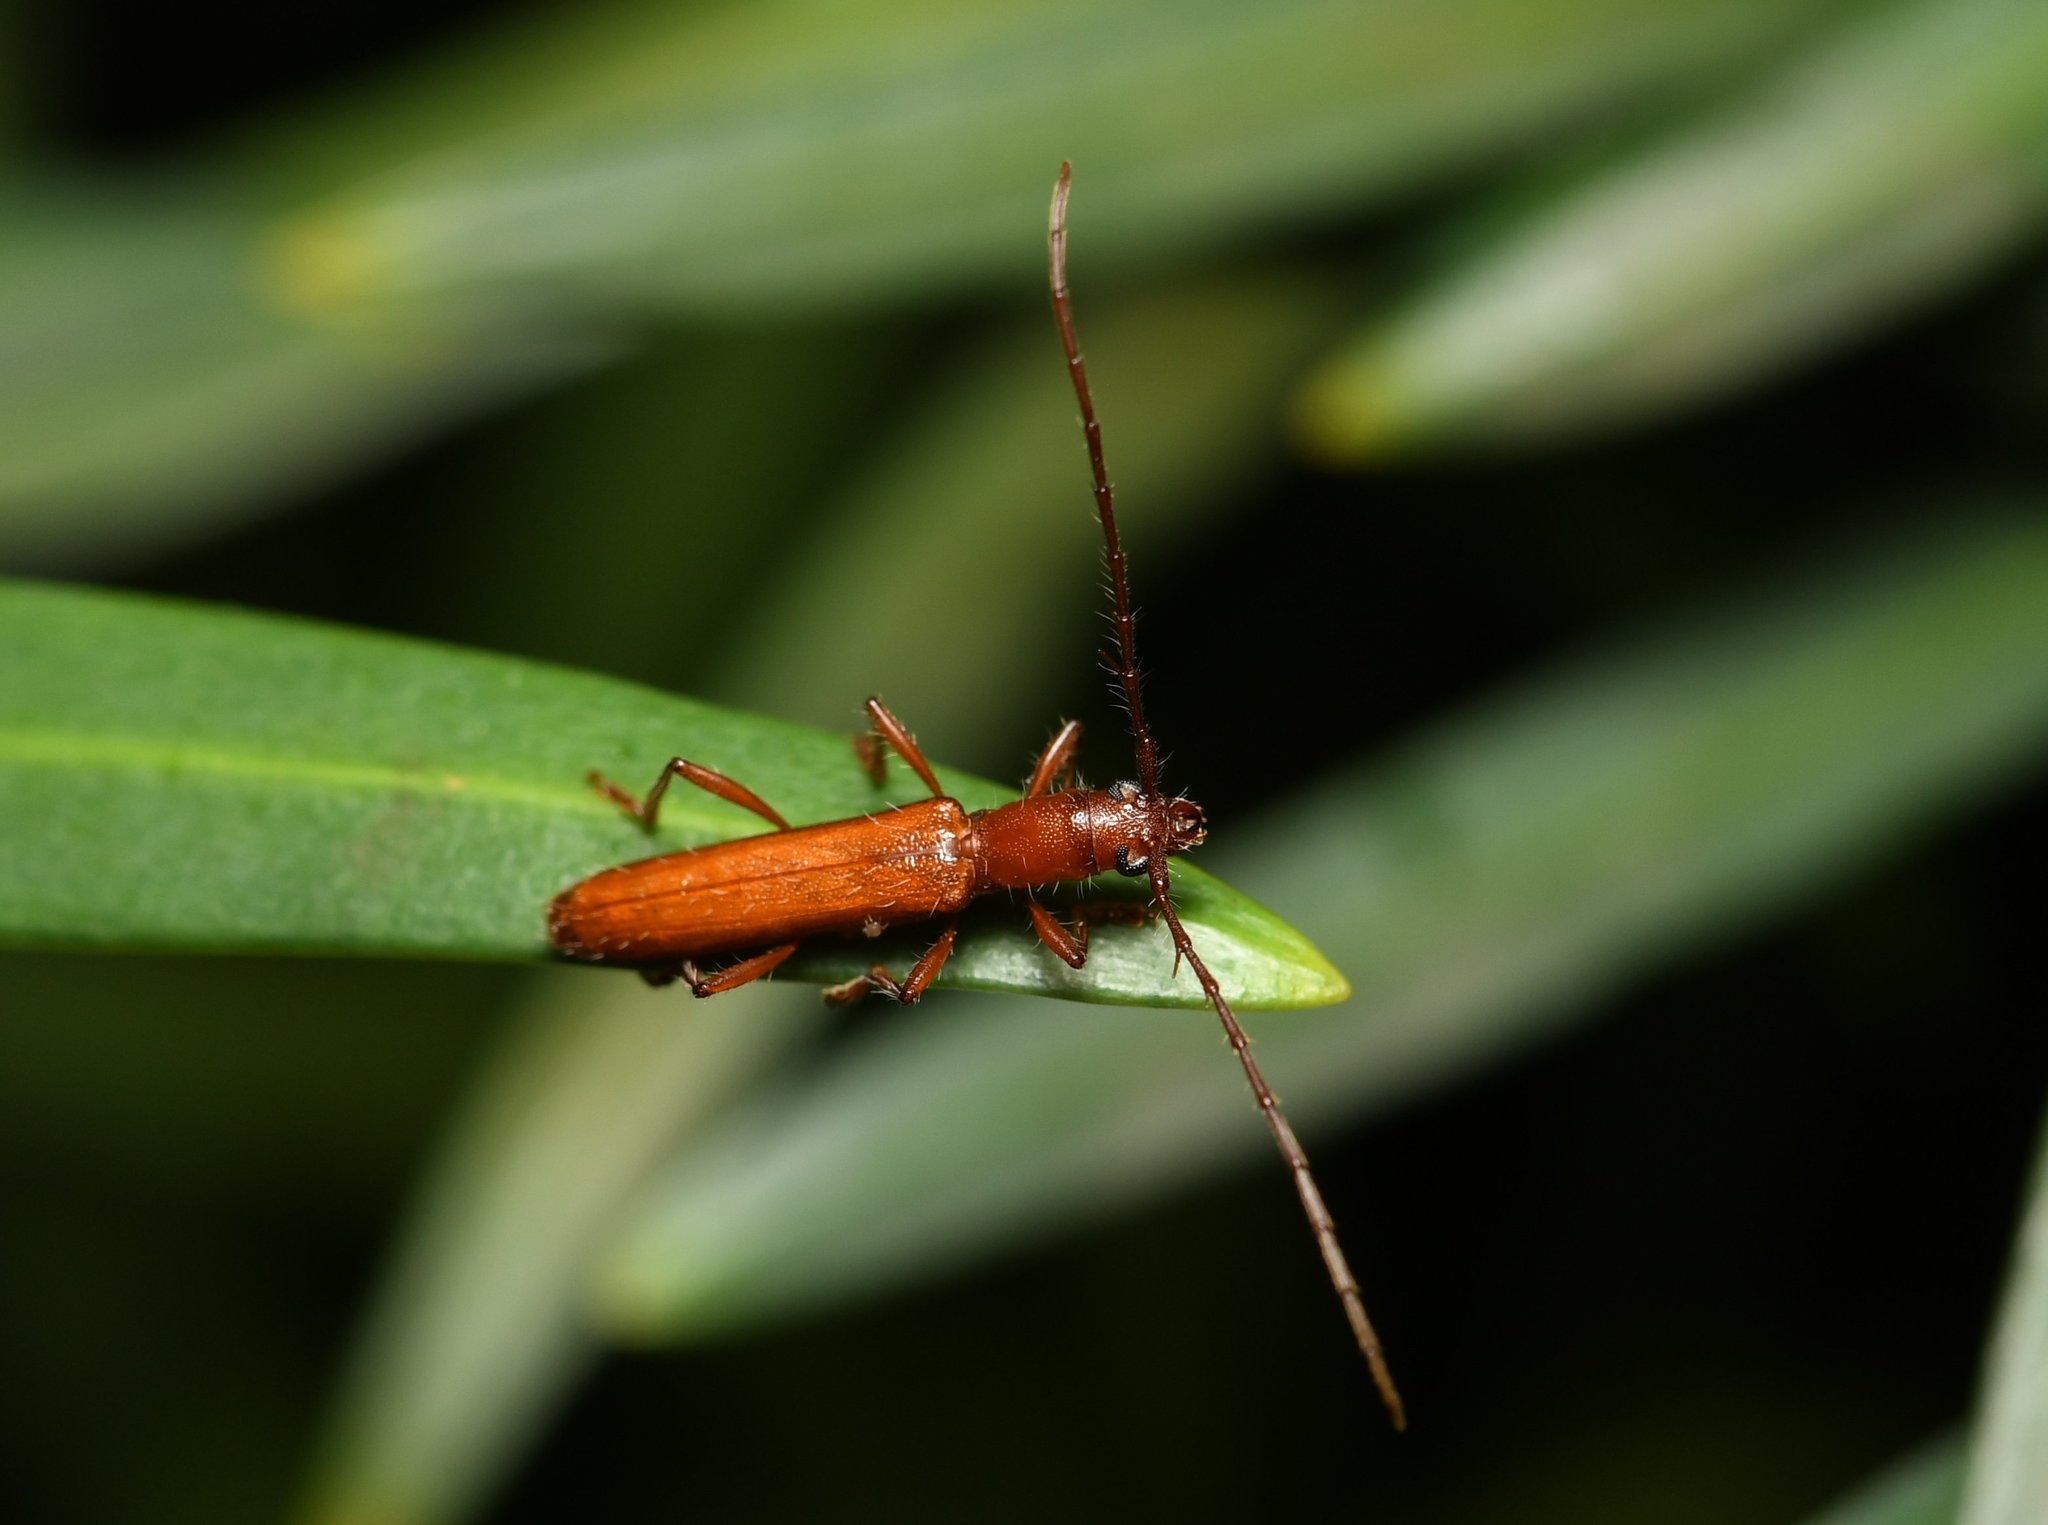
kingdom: Animalia
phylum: Arthropoda
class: Insecta
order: Coleoptera
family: Cerambycidae
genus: Psyrassa
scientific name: Psyrassa pertenuis
